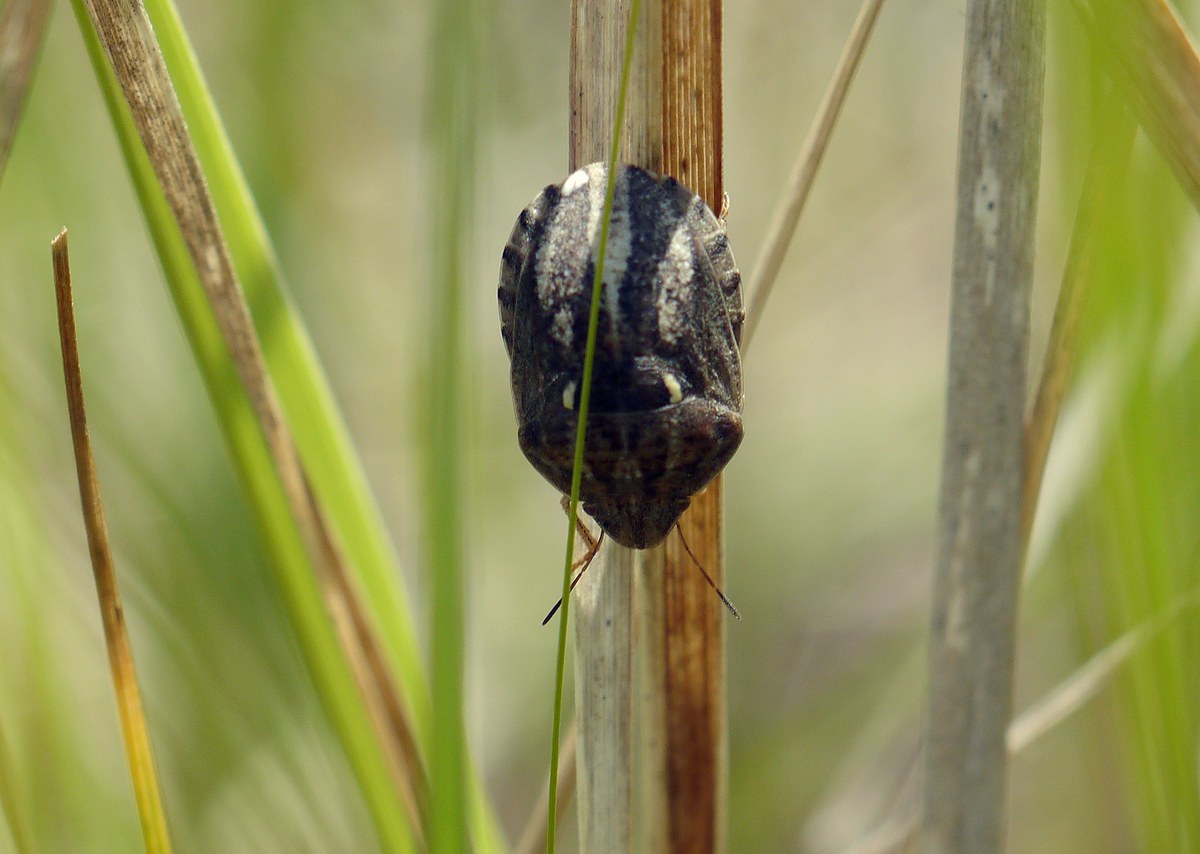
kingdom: Animalia
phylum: Arthropoda
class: Insecta
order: Hemiptera
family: Scutelleridae
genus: Eurygaster
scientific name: Eurygaster maura
